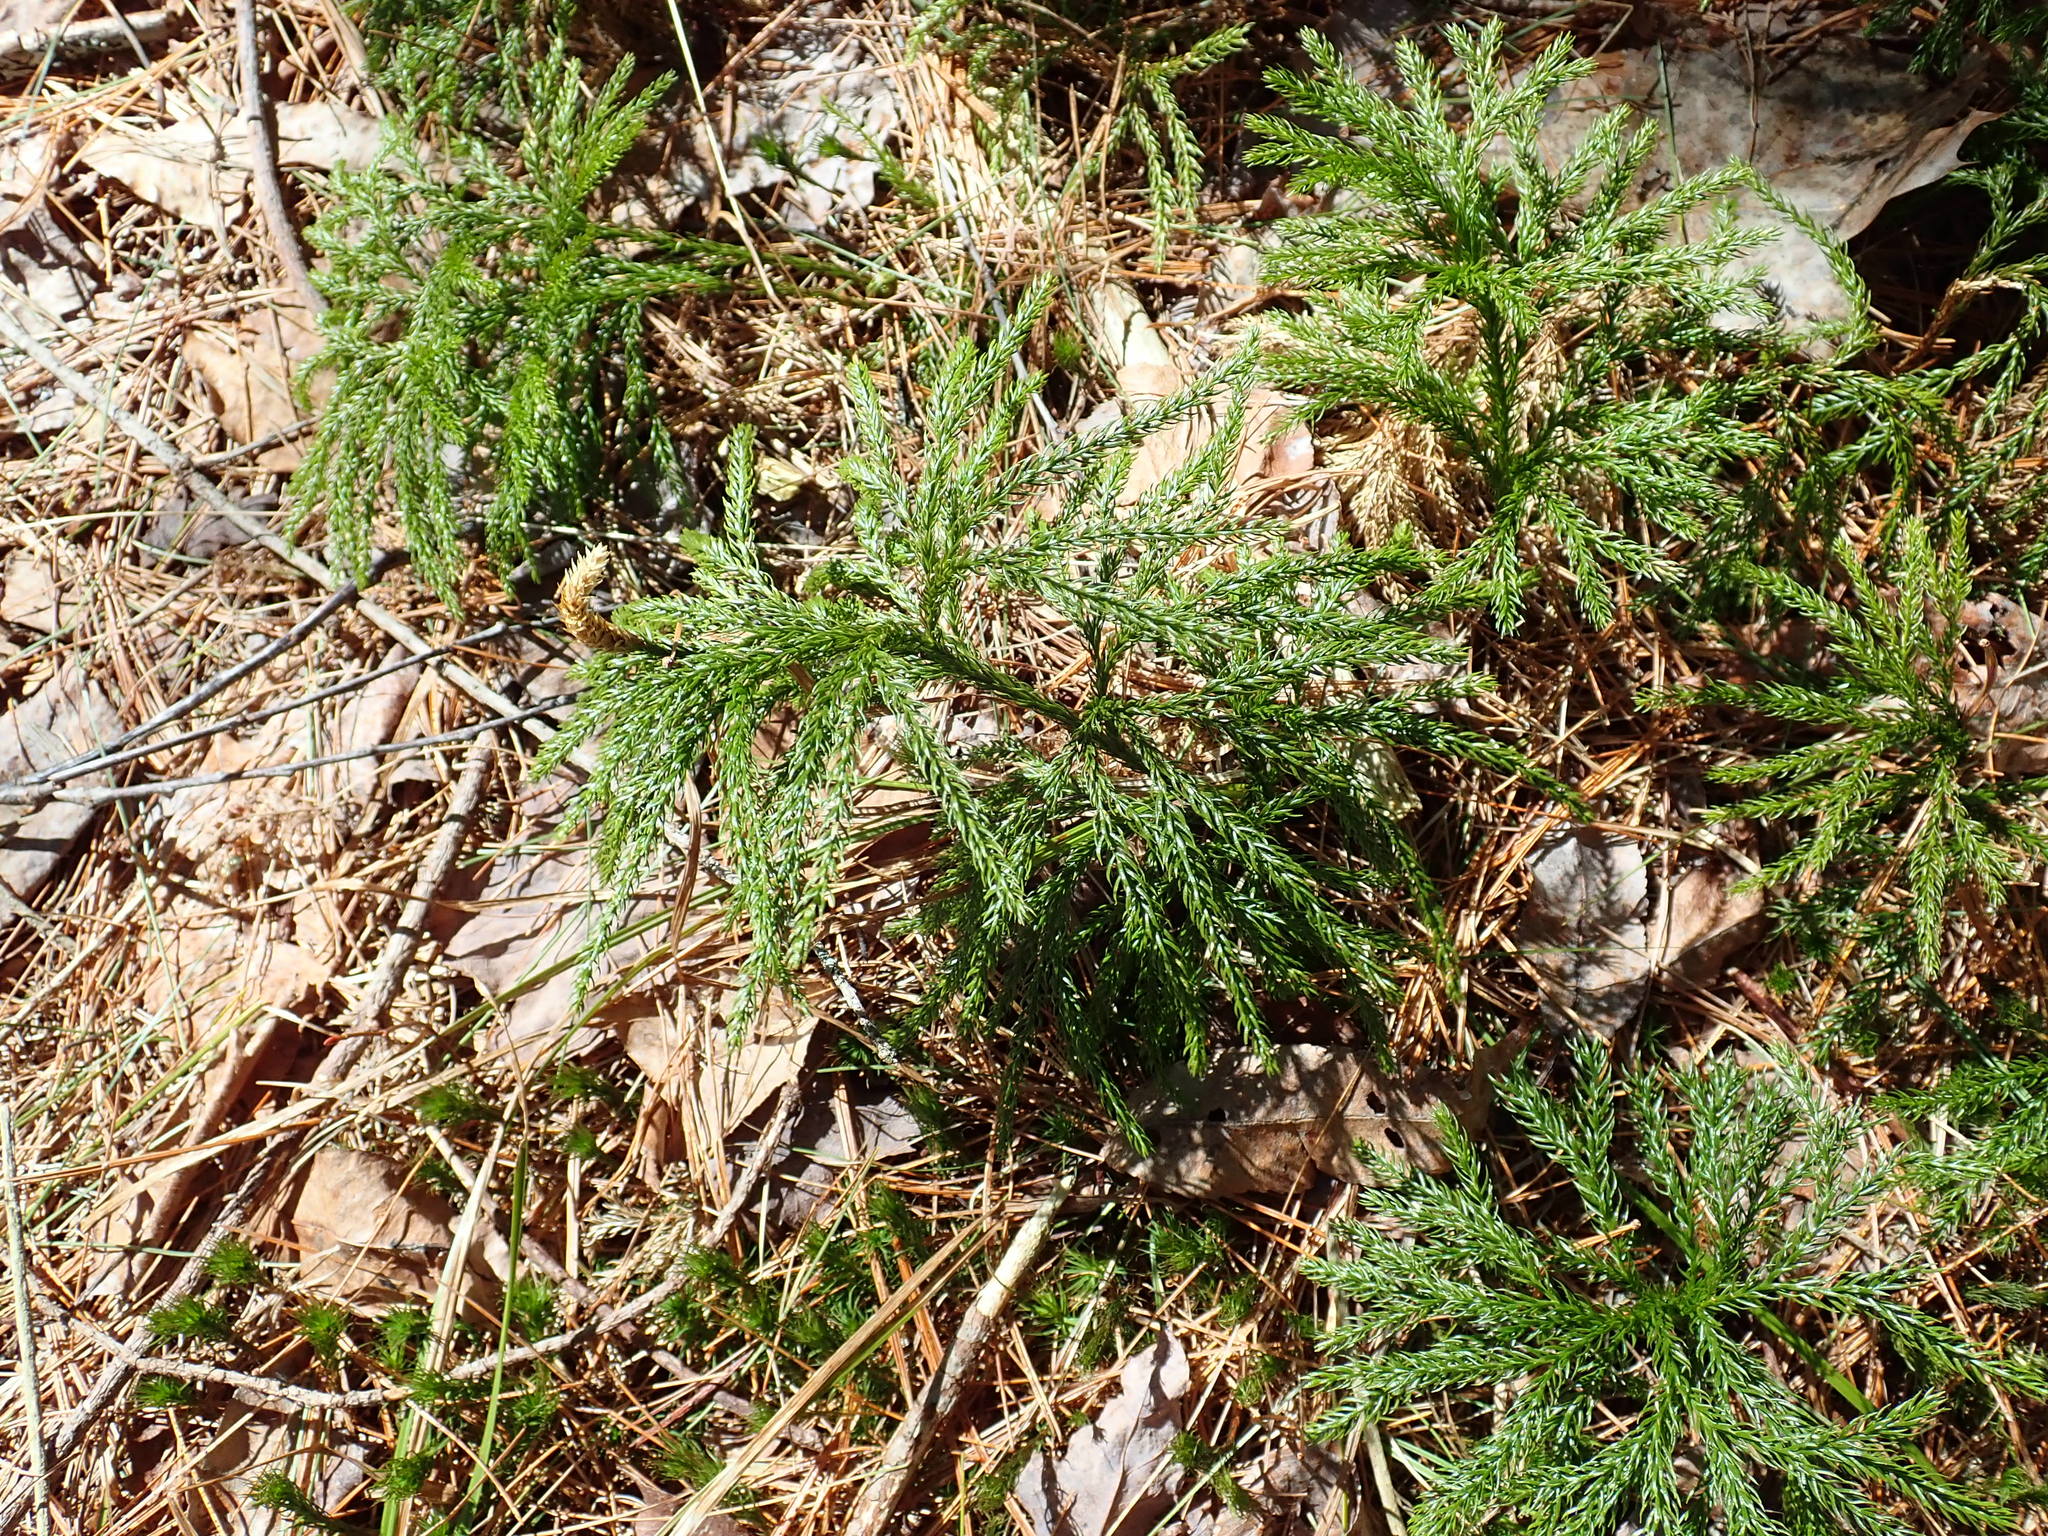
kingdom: Plantae
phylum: Tracheophyta
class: Lycopodiopsida
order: Lycopodiales
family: Lycopodiaceae
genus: Dendrolycopodium
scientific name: Dendrolycopodium
